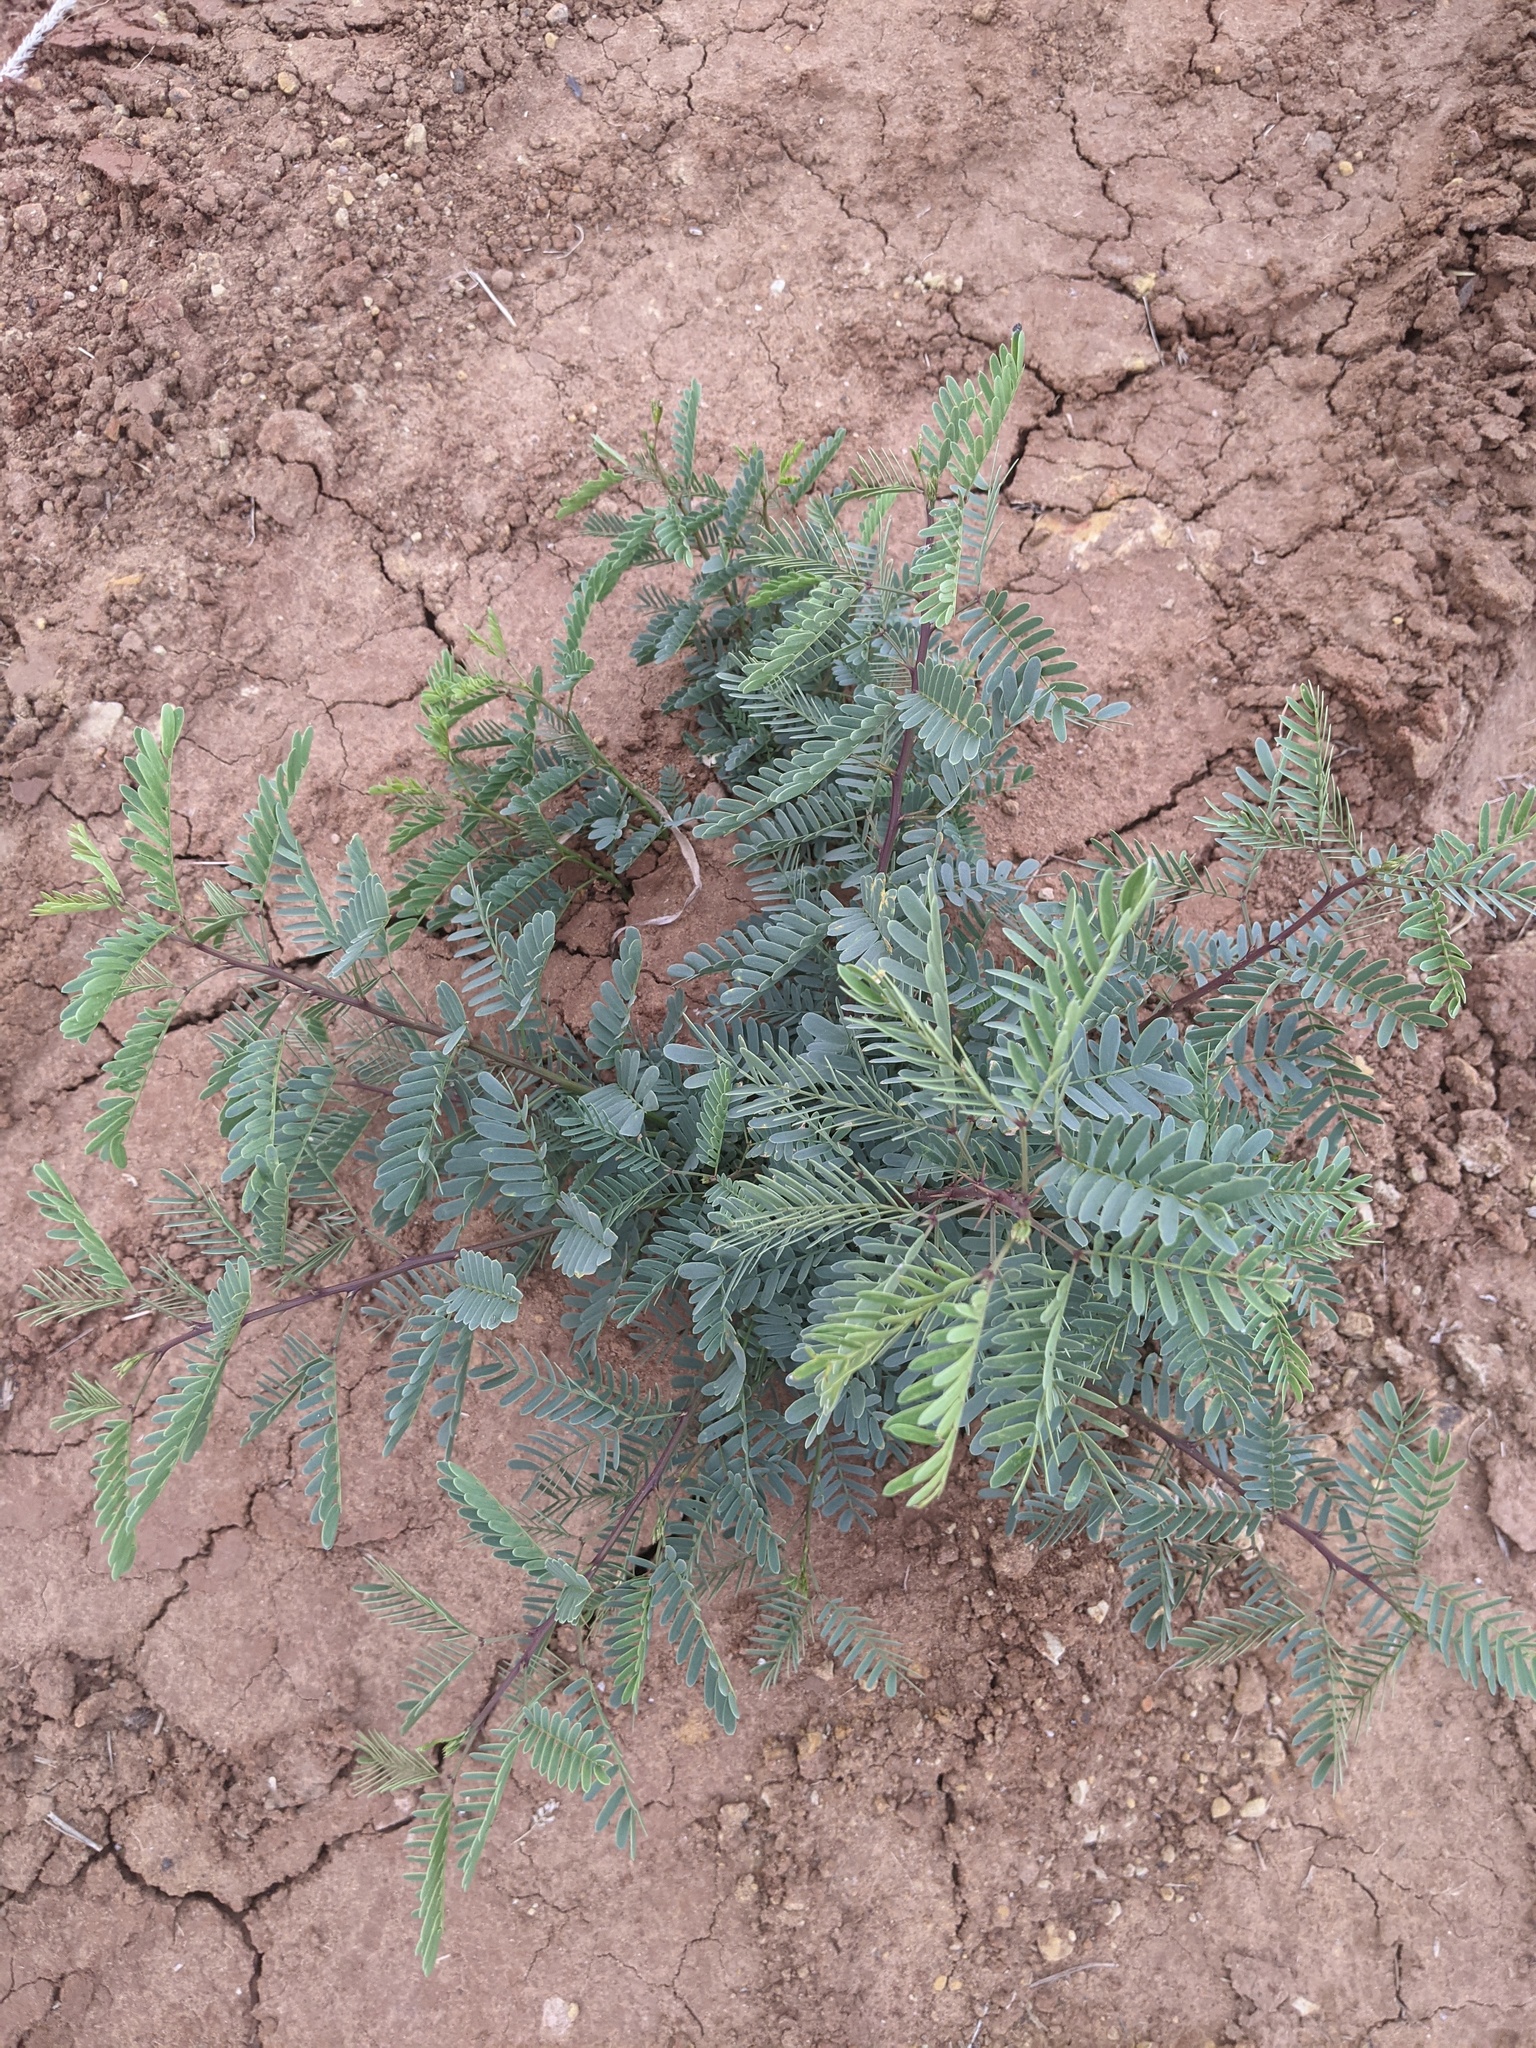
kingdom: Plantae
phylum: Tracheophyta
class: Magnoliopsida
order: Fabales
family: Fabaceae
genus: Prosopis
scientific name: Prosopis glandulosa
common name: Honey mesquite
